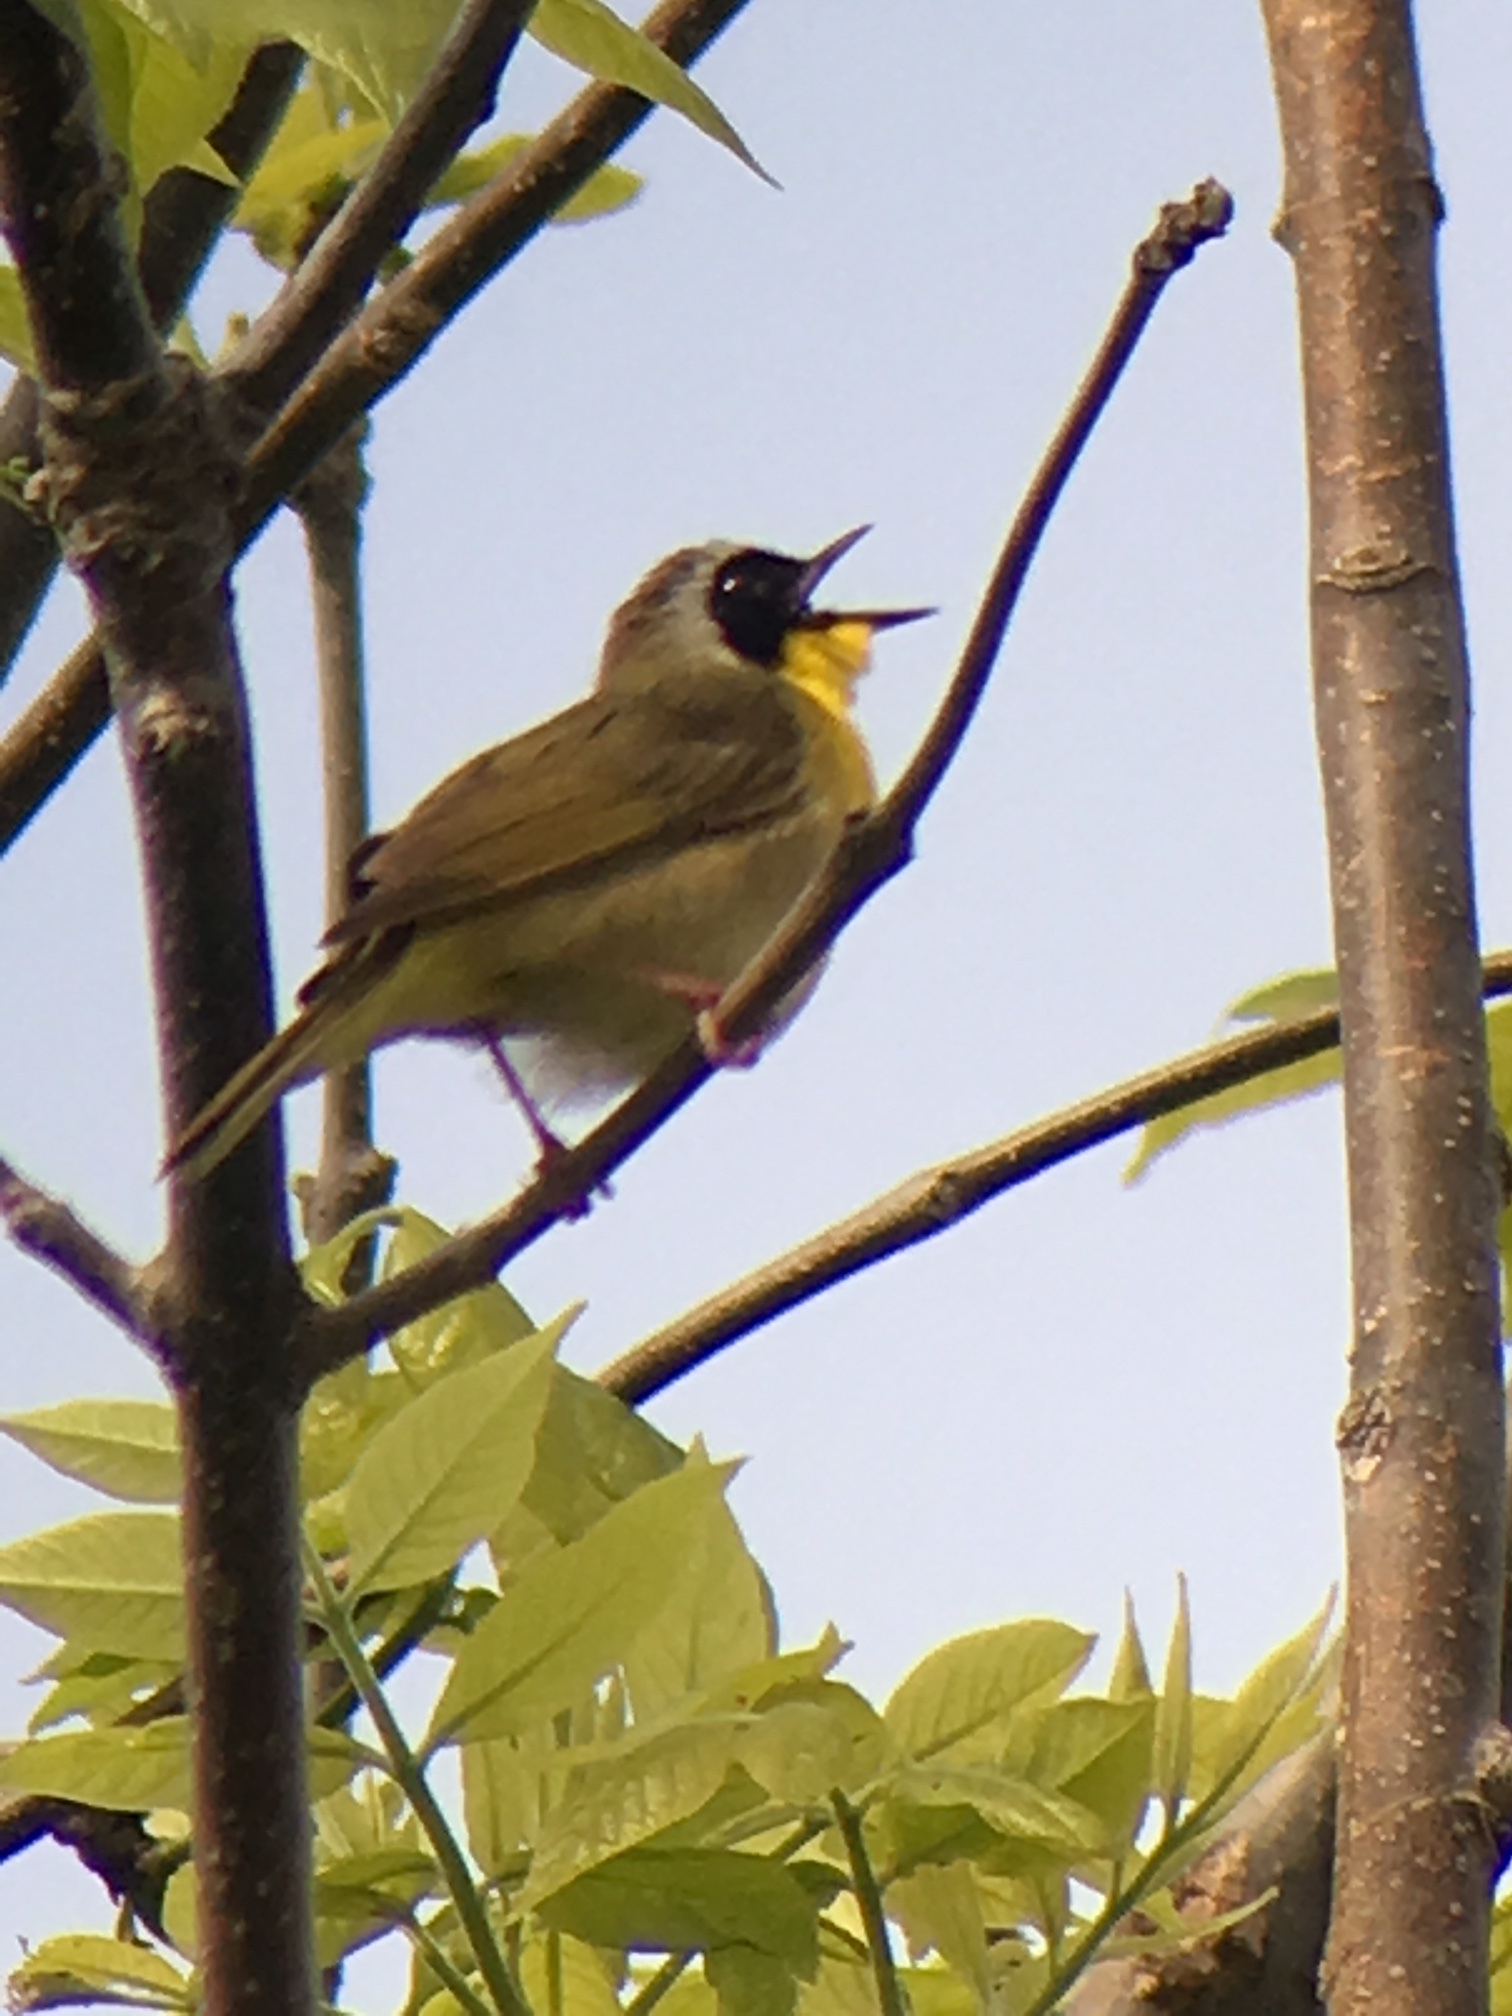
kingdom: Animalia
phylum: Chordata
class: Aves
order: Passeriformes
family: Parulidae
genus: Geothlypis
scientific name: Geothlypis trichas
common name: Common yellowthroat
